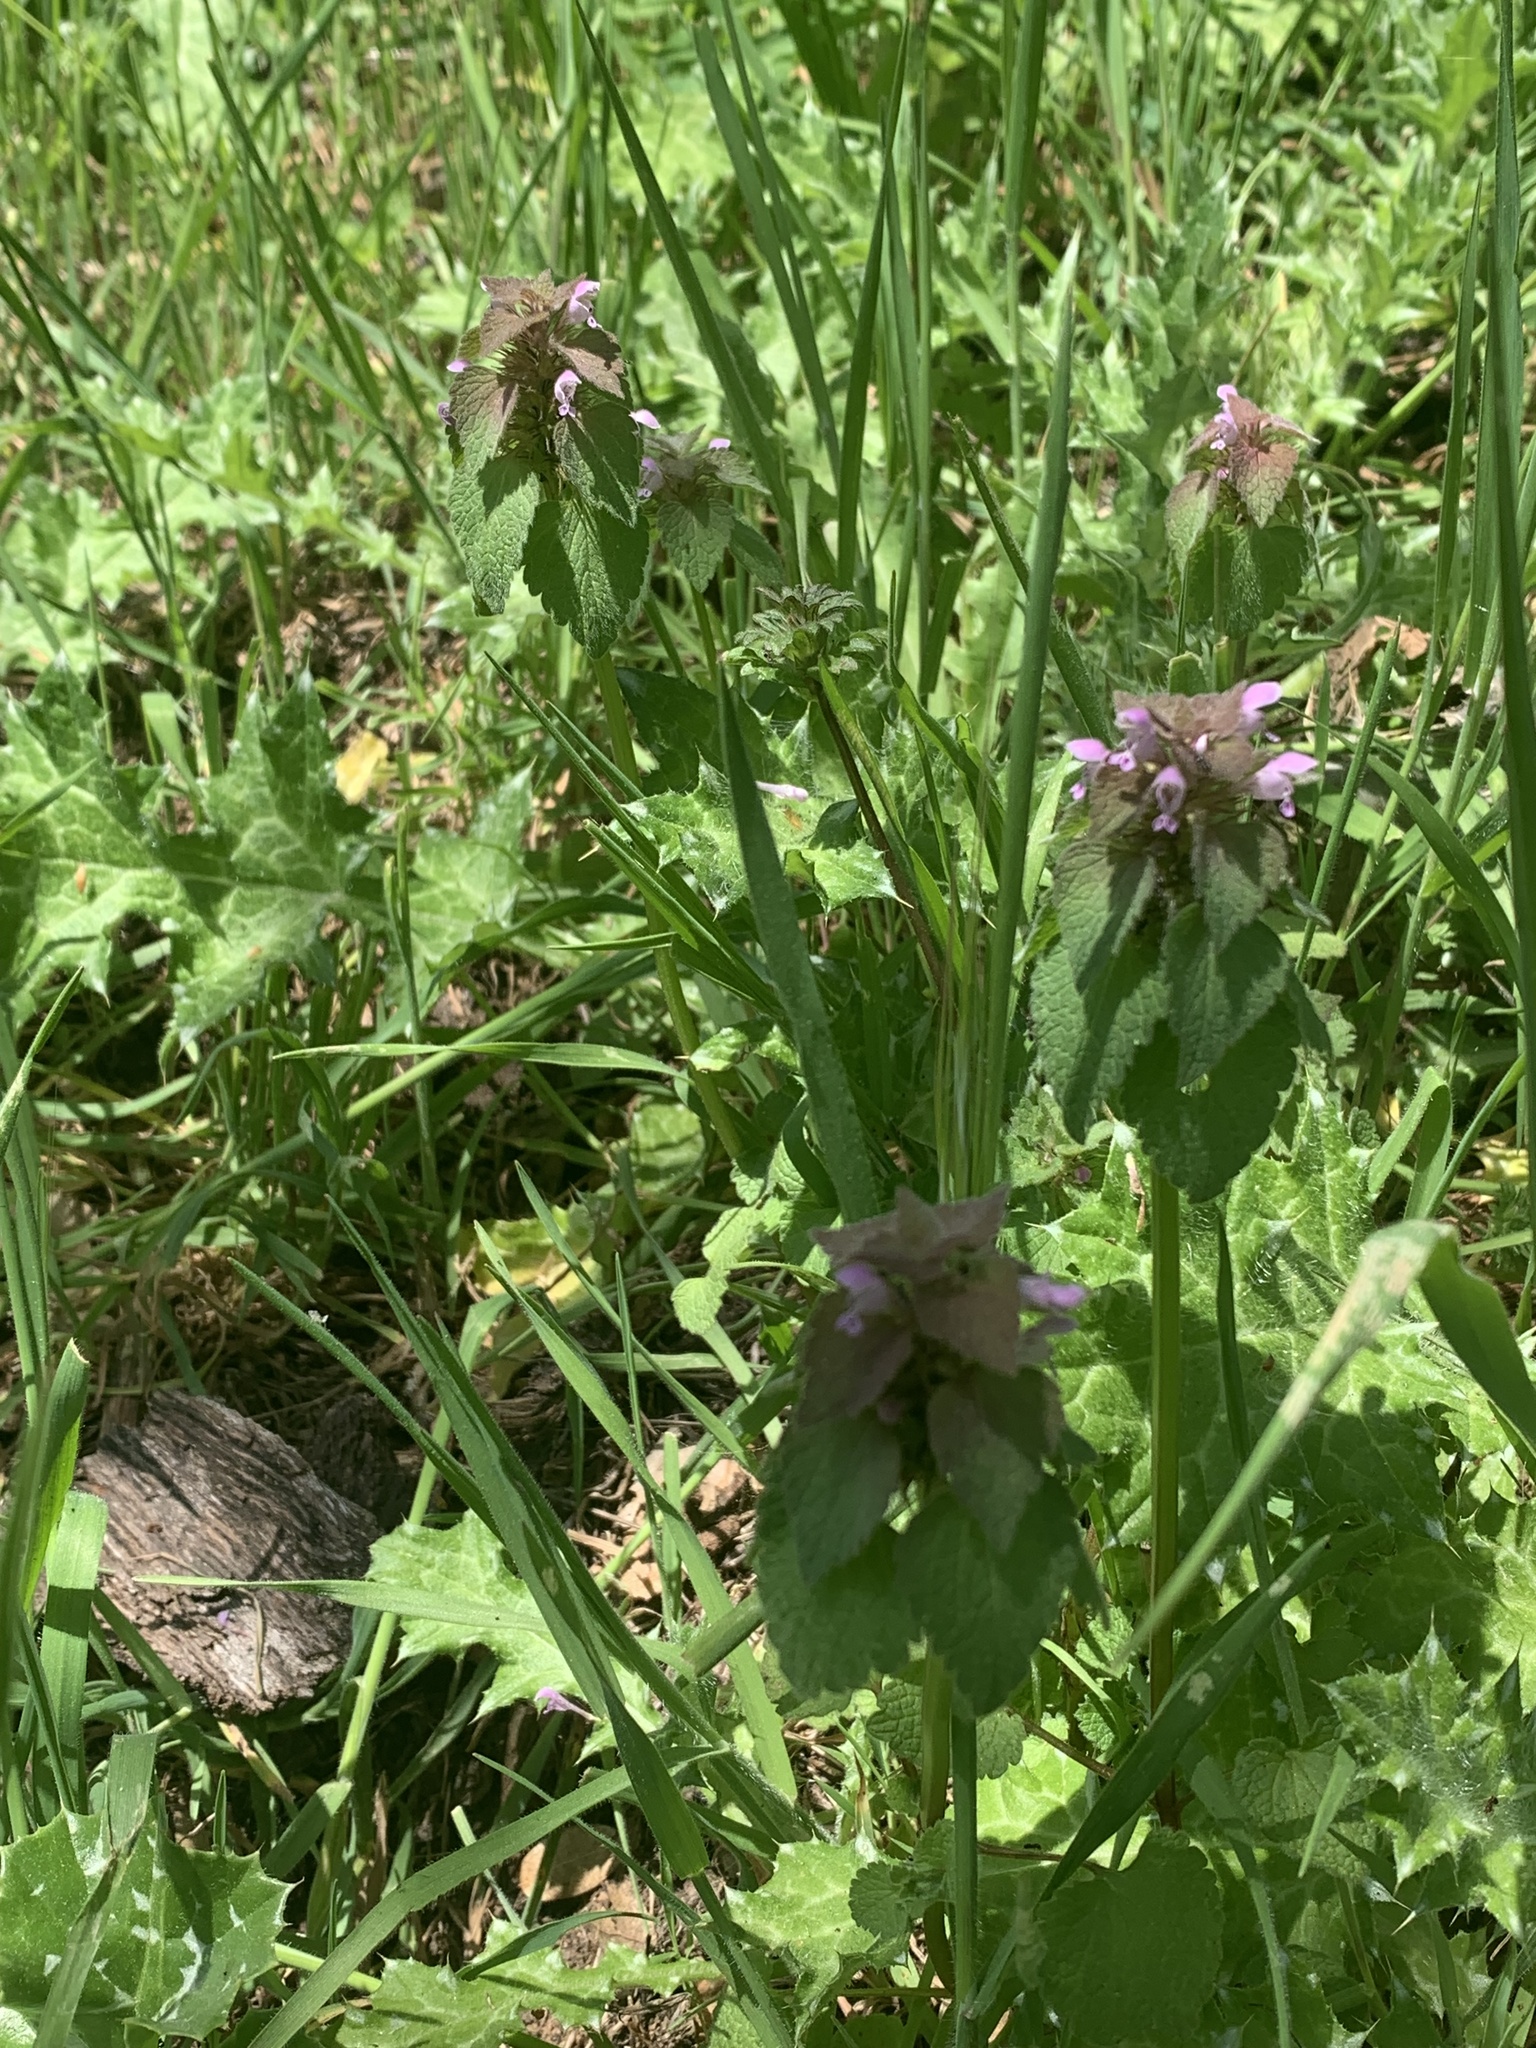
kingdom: Plantae
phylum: Tracheophyta
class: Magnoliopsida
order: Lamiales
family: Lamiaceae
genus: Lamium
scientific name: Lamium purpureum
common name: Red dead-nettle
